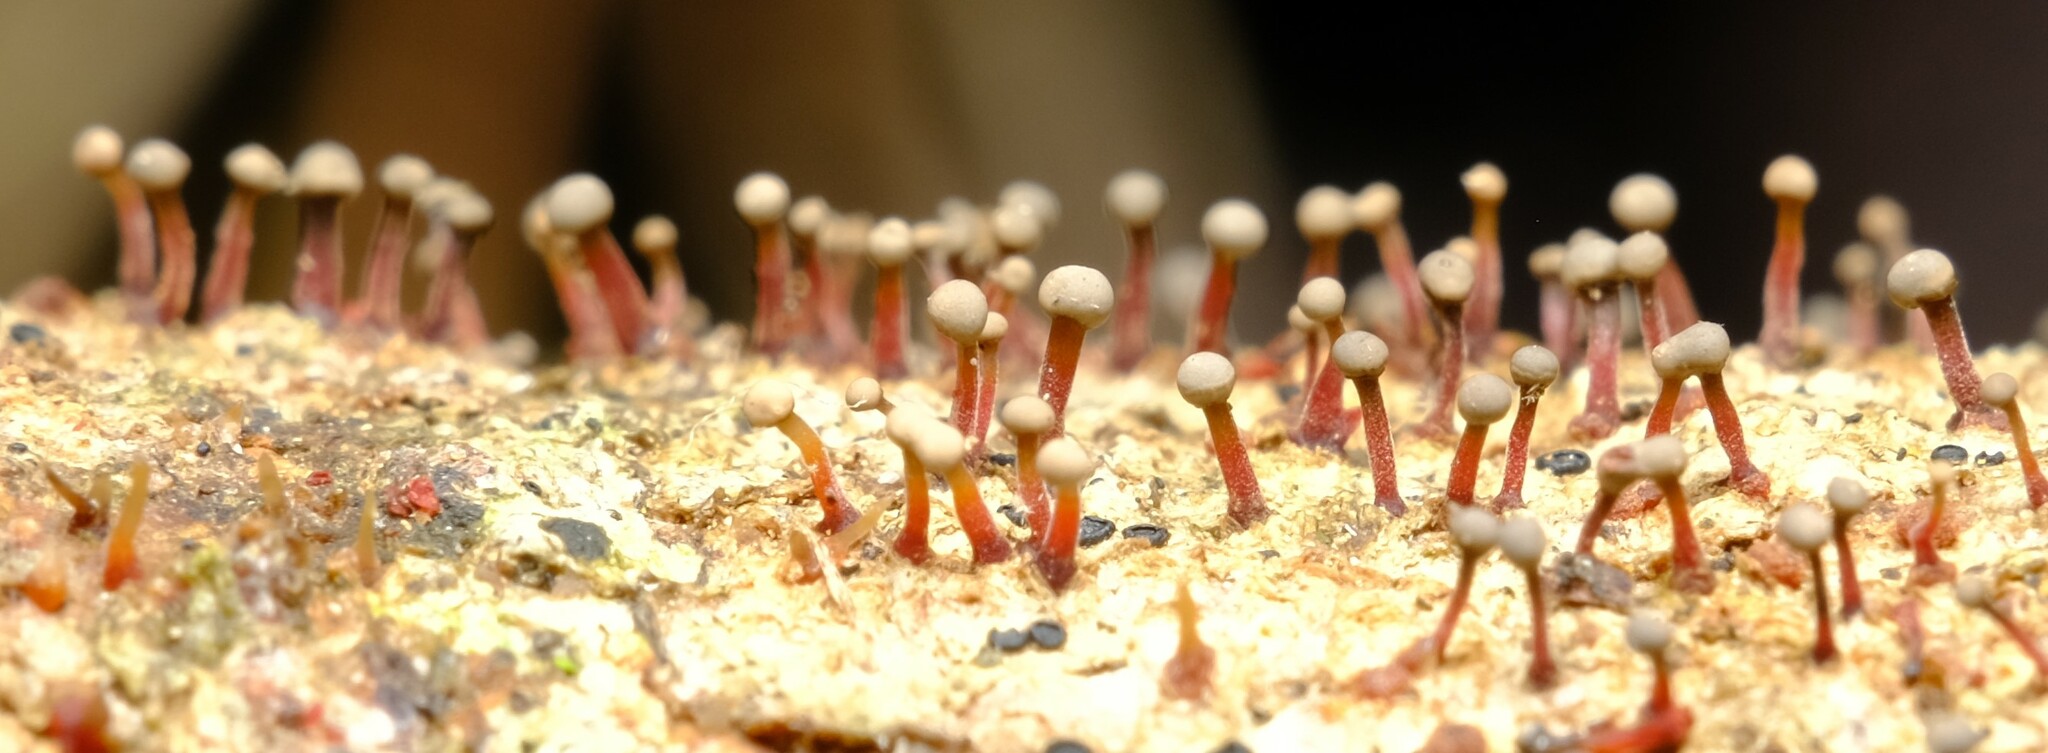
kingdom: Fungi
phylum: Ascomycota
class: Sordariomycetes
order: Hypocreales
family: Nectriaceae
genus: Nectria
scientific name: Nectria pseudotrichia
